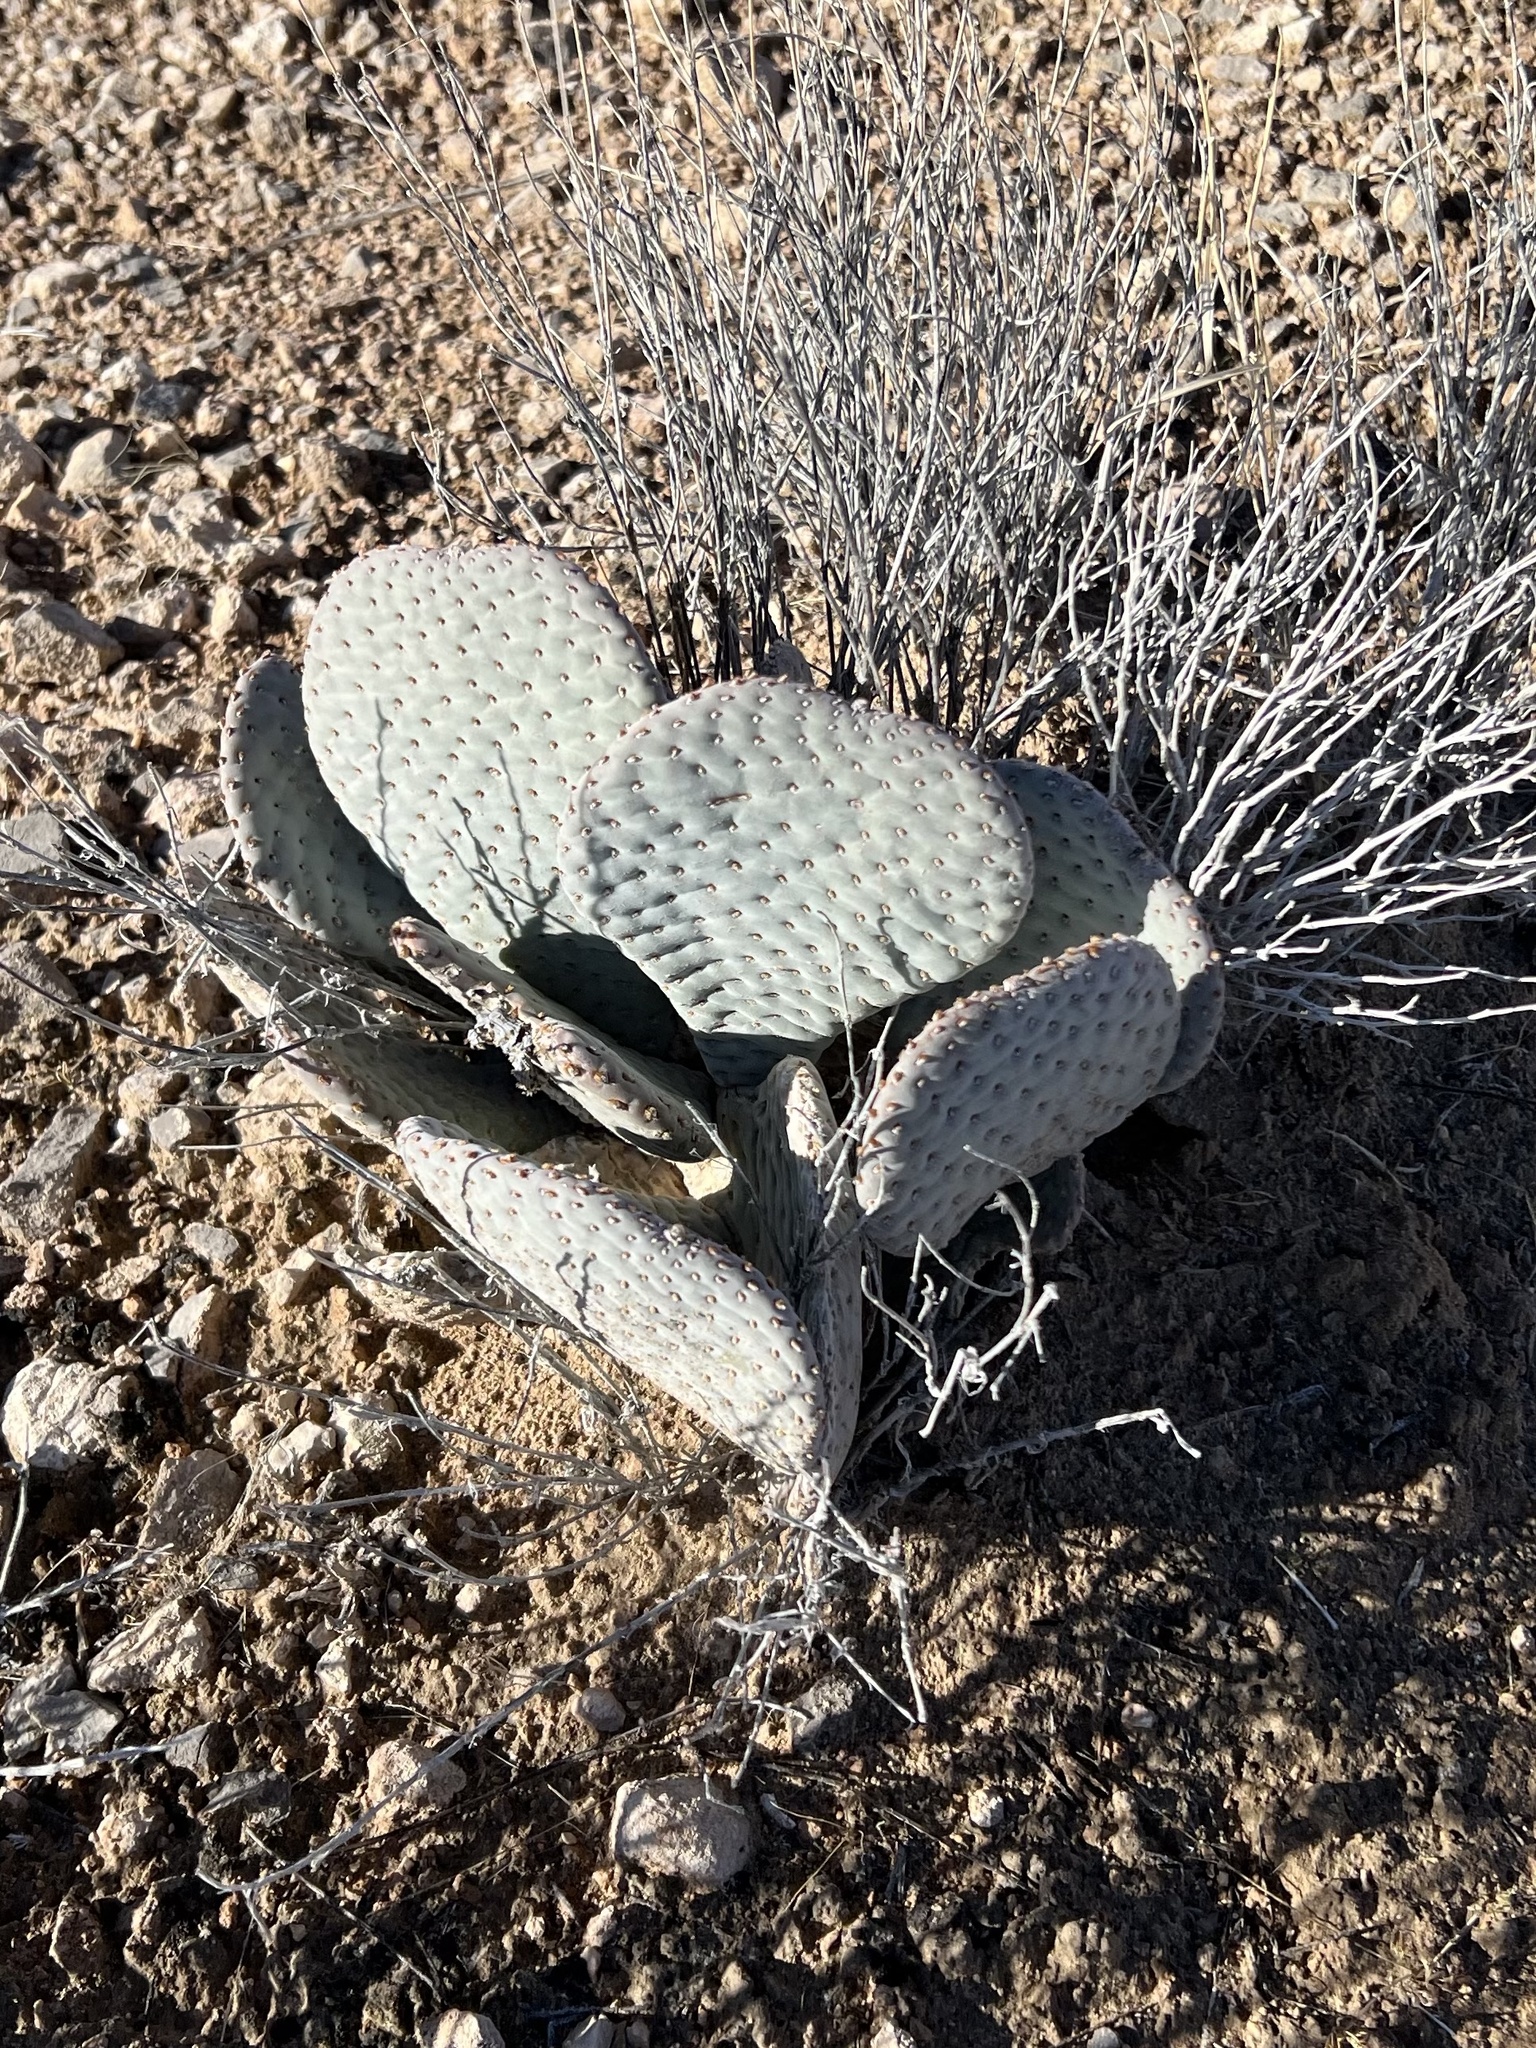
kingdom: Plantae
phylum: Tracheophyta
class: Magnoliopsida
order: Caryophyllales
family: Cactaceae
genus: Opuntia
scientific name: Opuntia basilaris
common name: Beavertail prickly-pear
